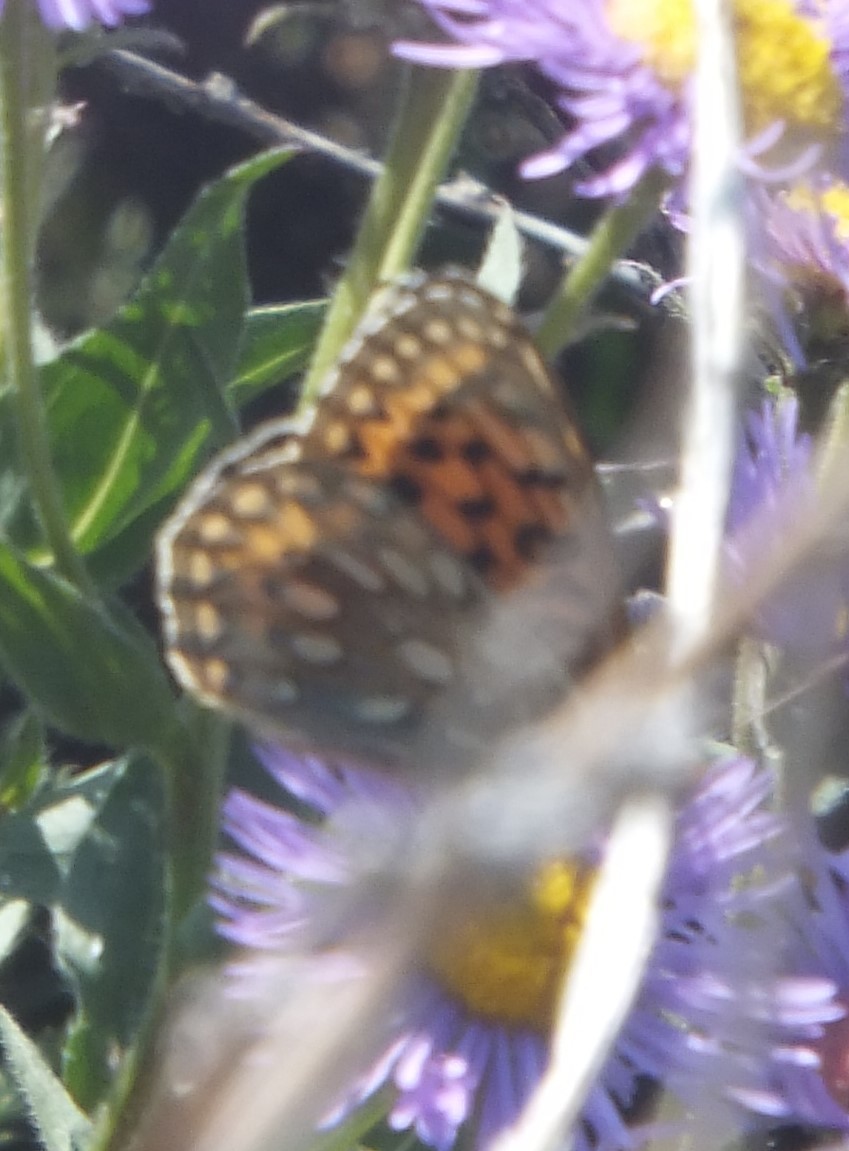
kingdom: Animalia
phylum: Arthropoda
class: Insecta
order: Lepidoptera
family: Nymphalidae
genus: Speyeria
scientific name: Speyeria mormonia
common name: Mormon fritillary
